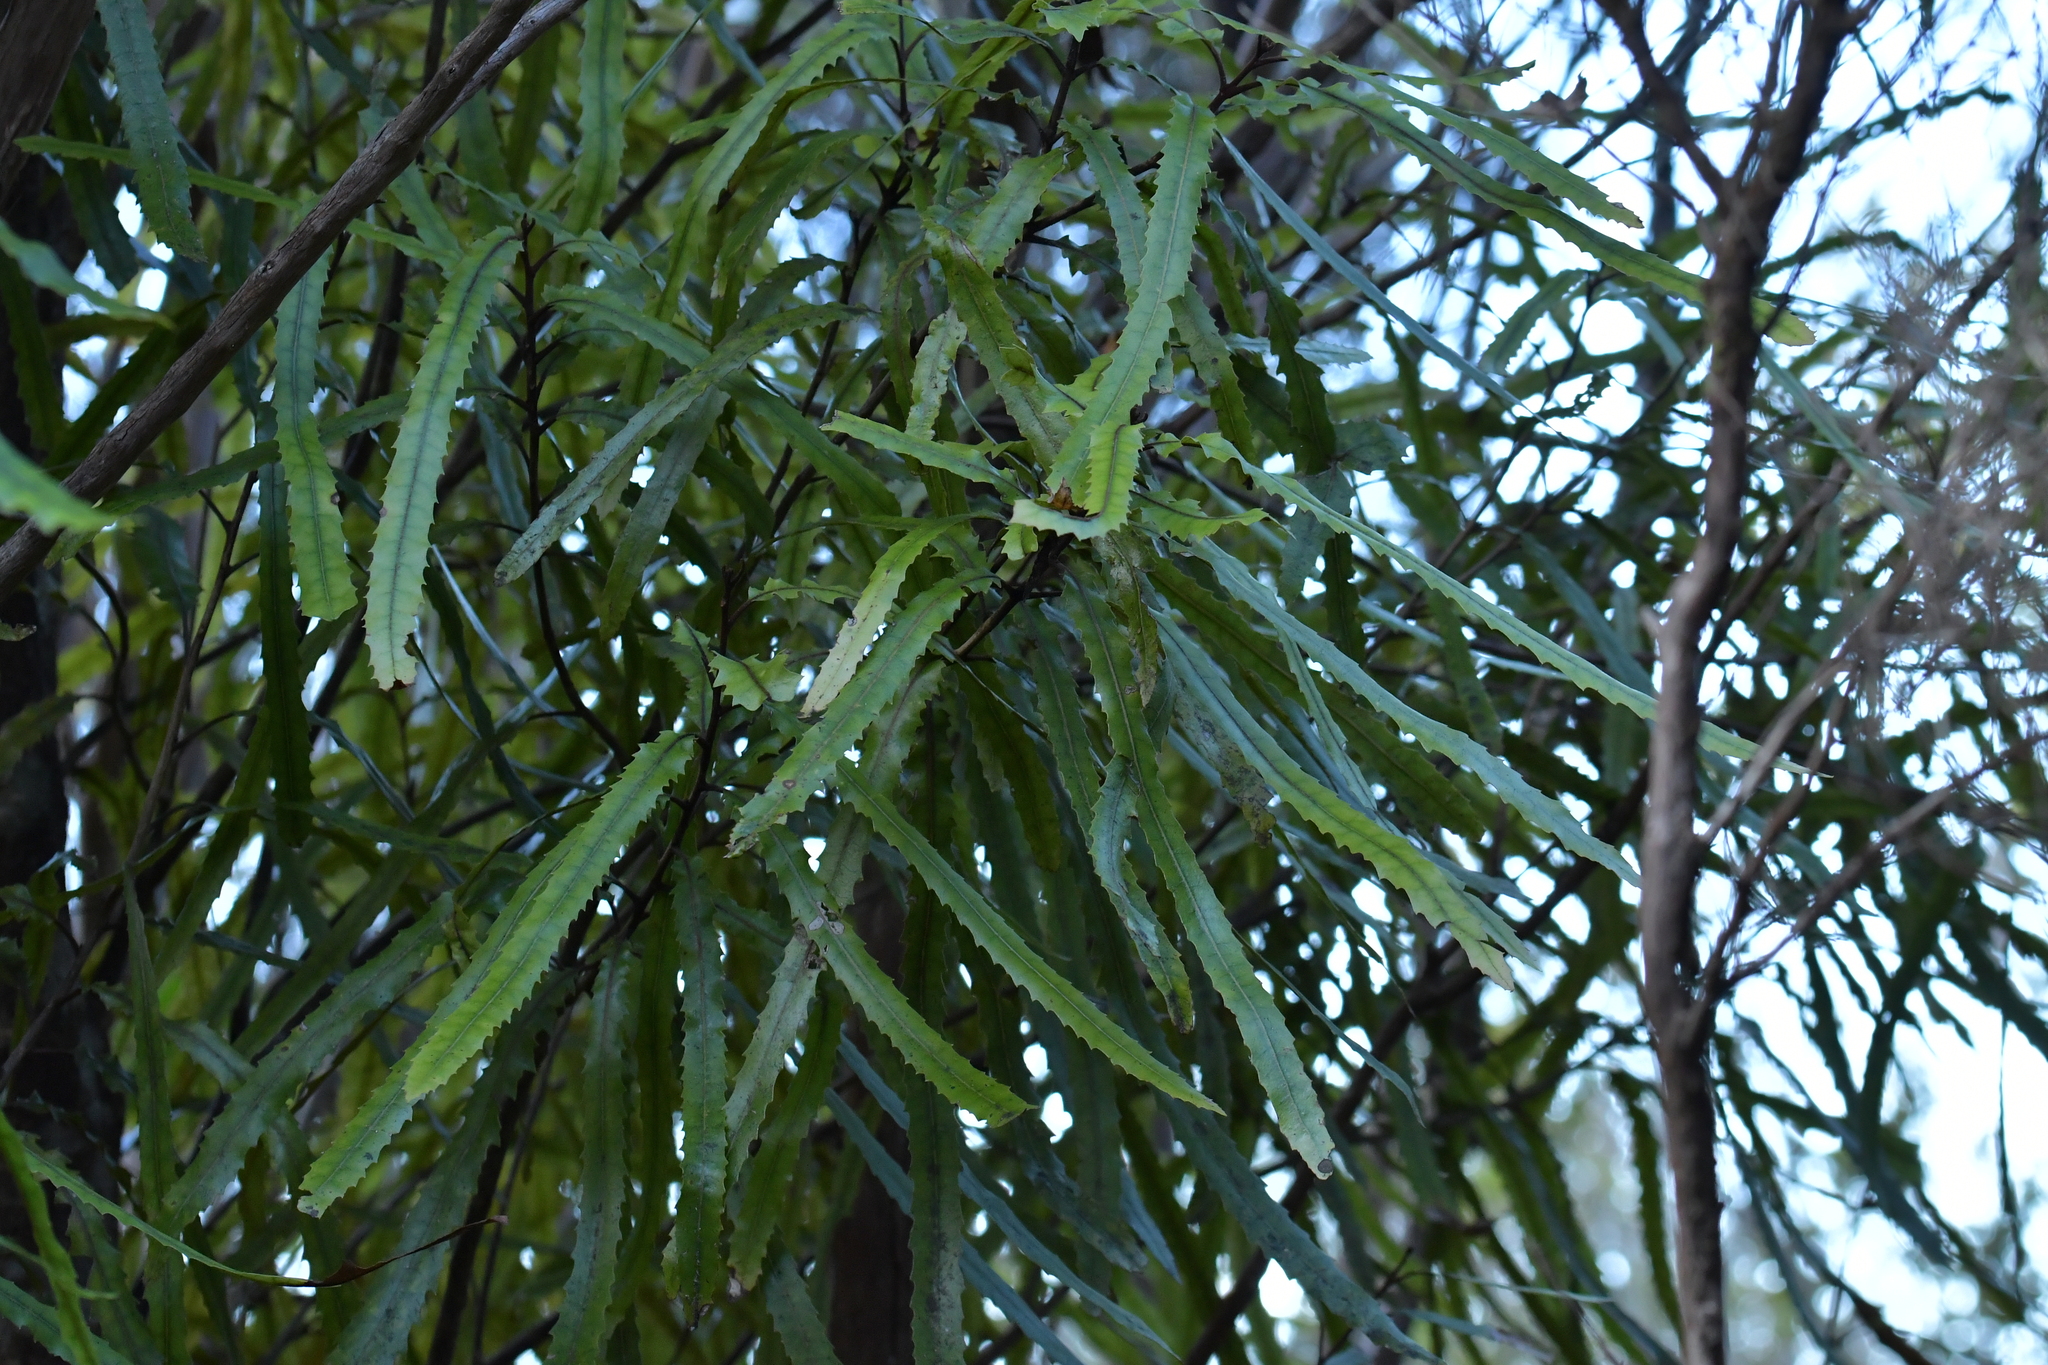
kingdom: Plantae
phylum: Tracheophyta
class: Magnoliopsida
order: Proteales
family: Proteaceae
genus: Knightia
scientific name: Knightia excelsa
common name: New zealand-honeysuckle
